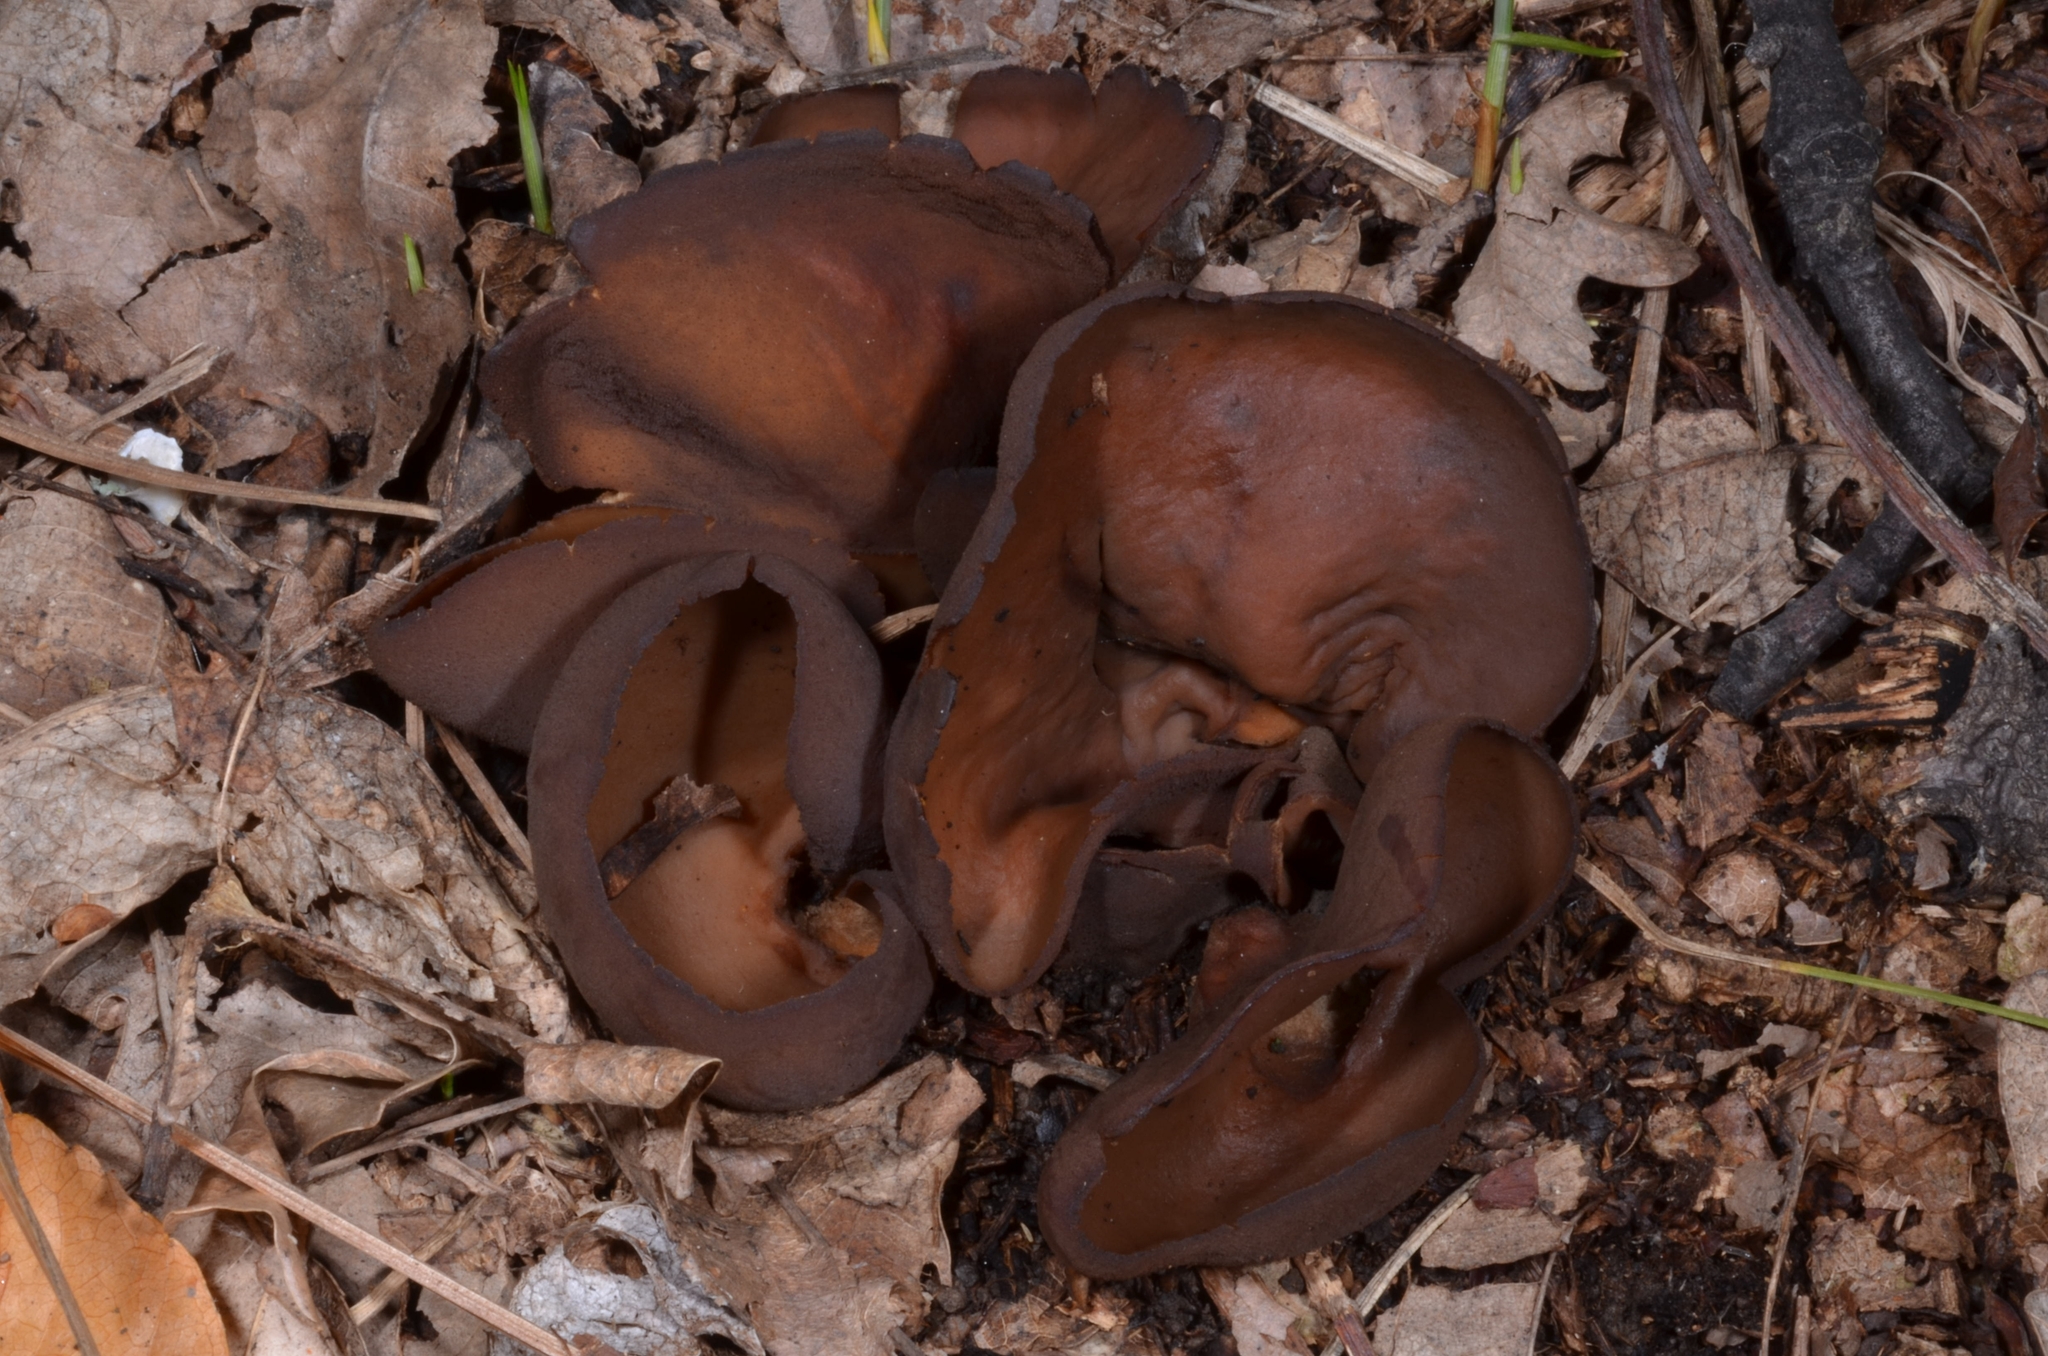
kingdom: Fungi
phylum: Ascomycota
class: Pezizomycetes
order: Pezizales
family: Otideaceae
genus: Otidea
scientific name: Otidea bufonia
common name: Toad's ear
